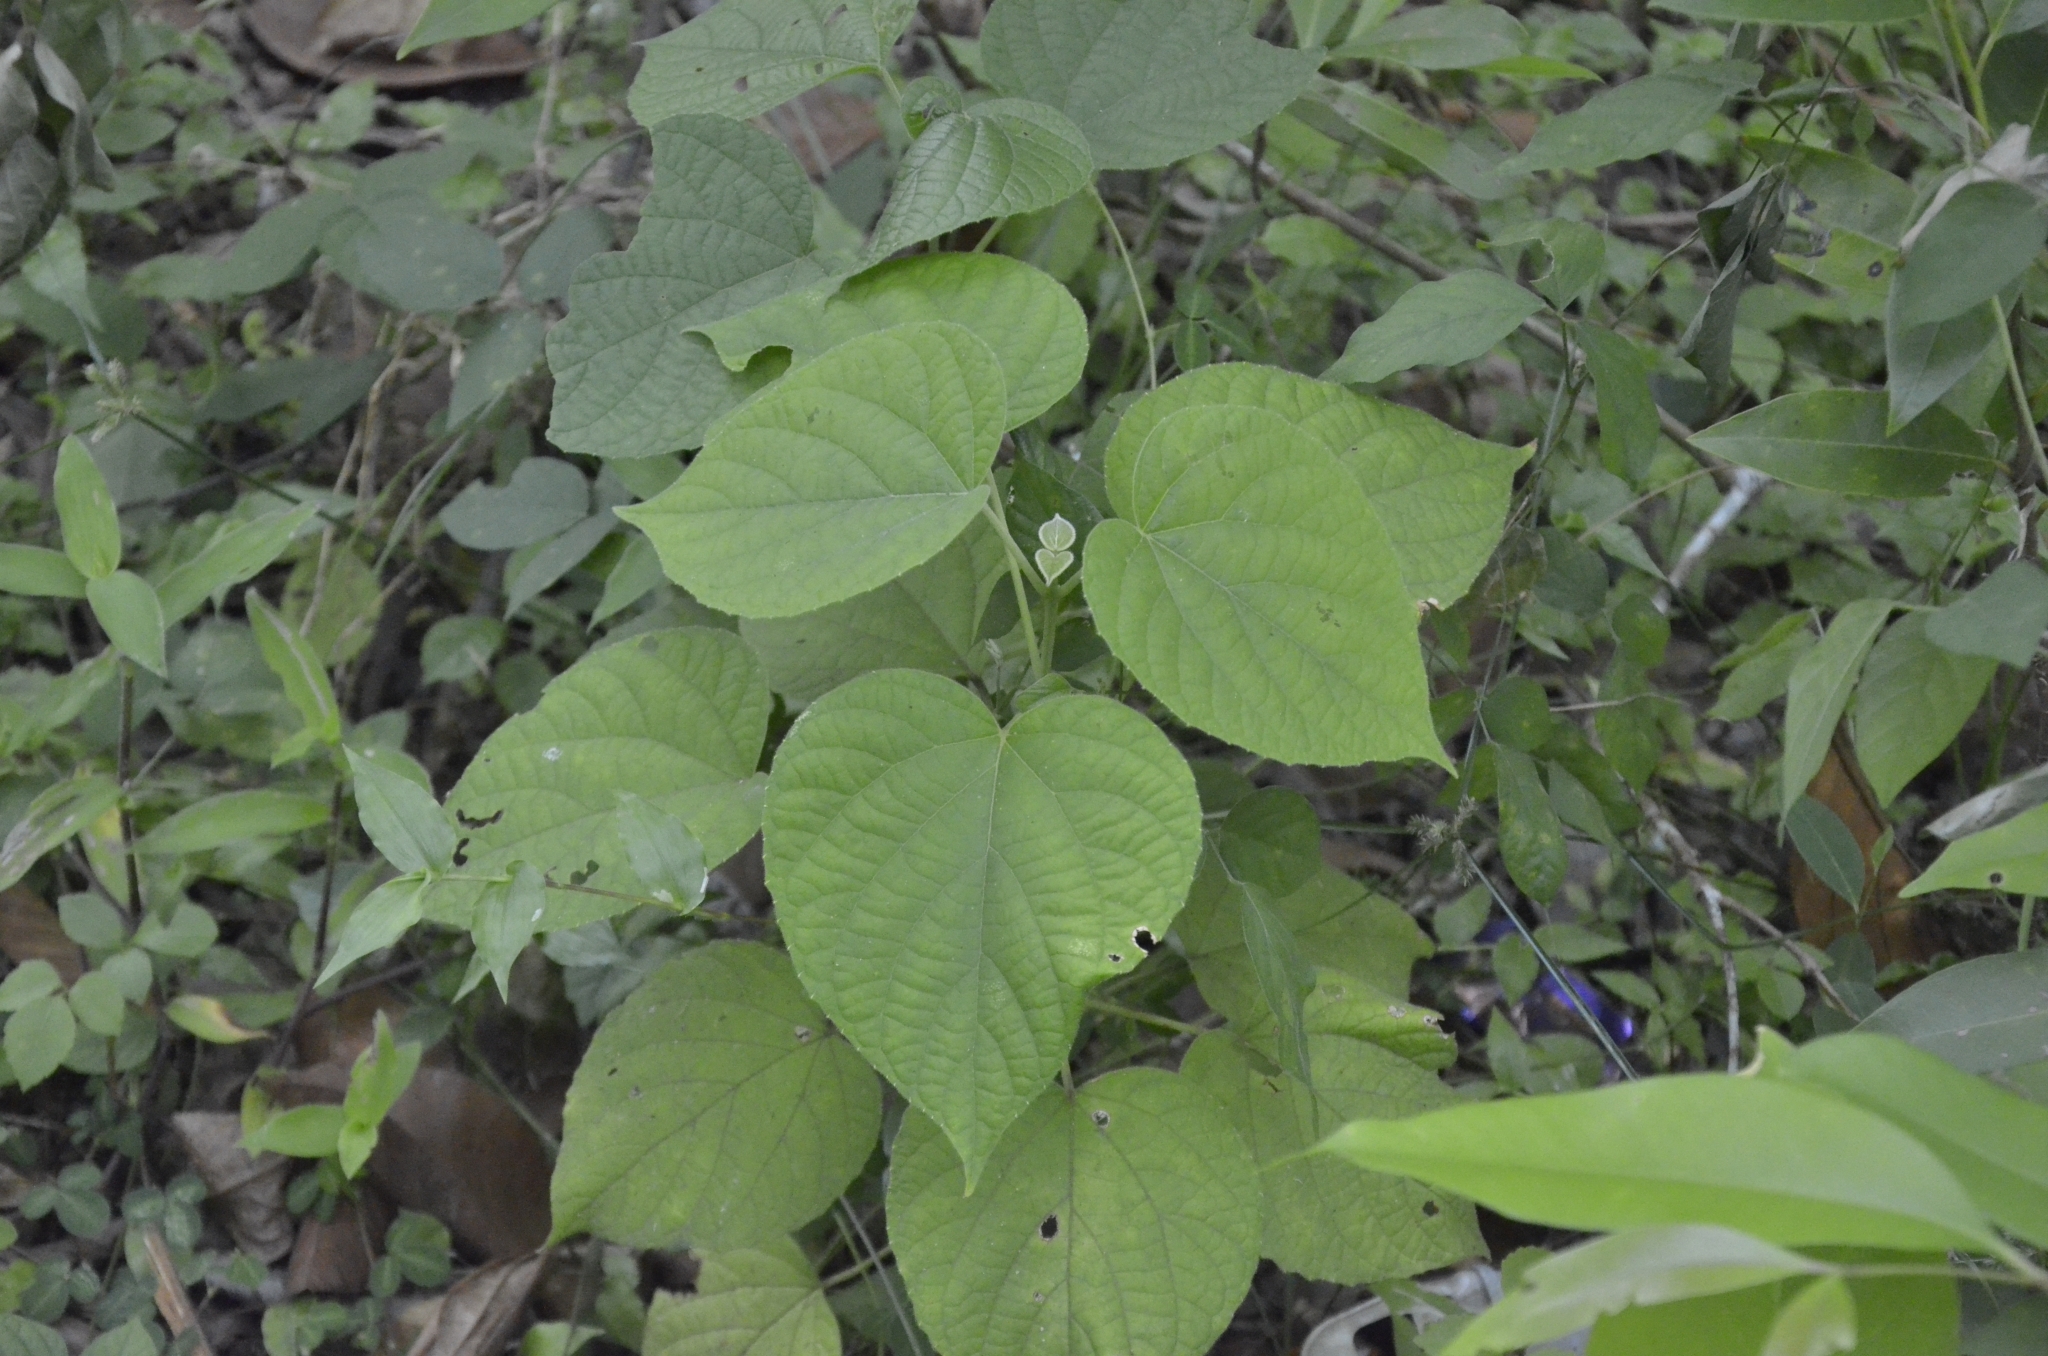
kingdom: Plantae
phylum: Tracheophyta
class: Magnoliopsida
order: Lamiales
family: Lamiaceae
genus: Clerodendrum
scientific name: Clerodendrum infortunatum
